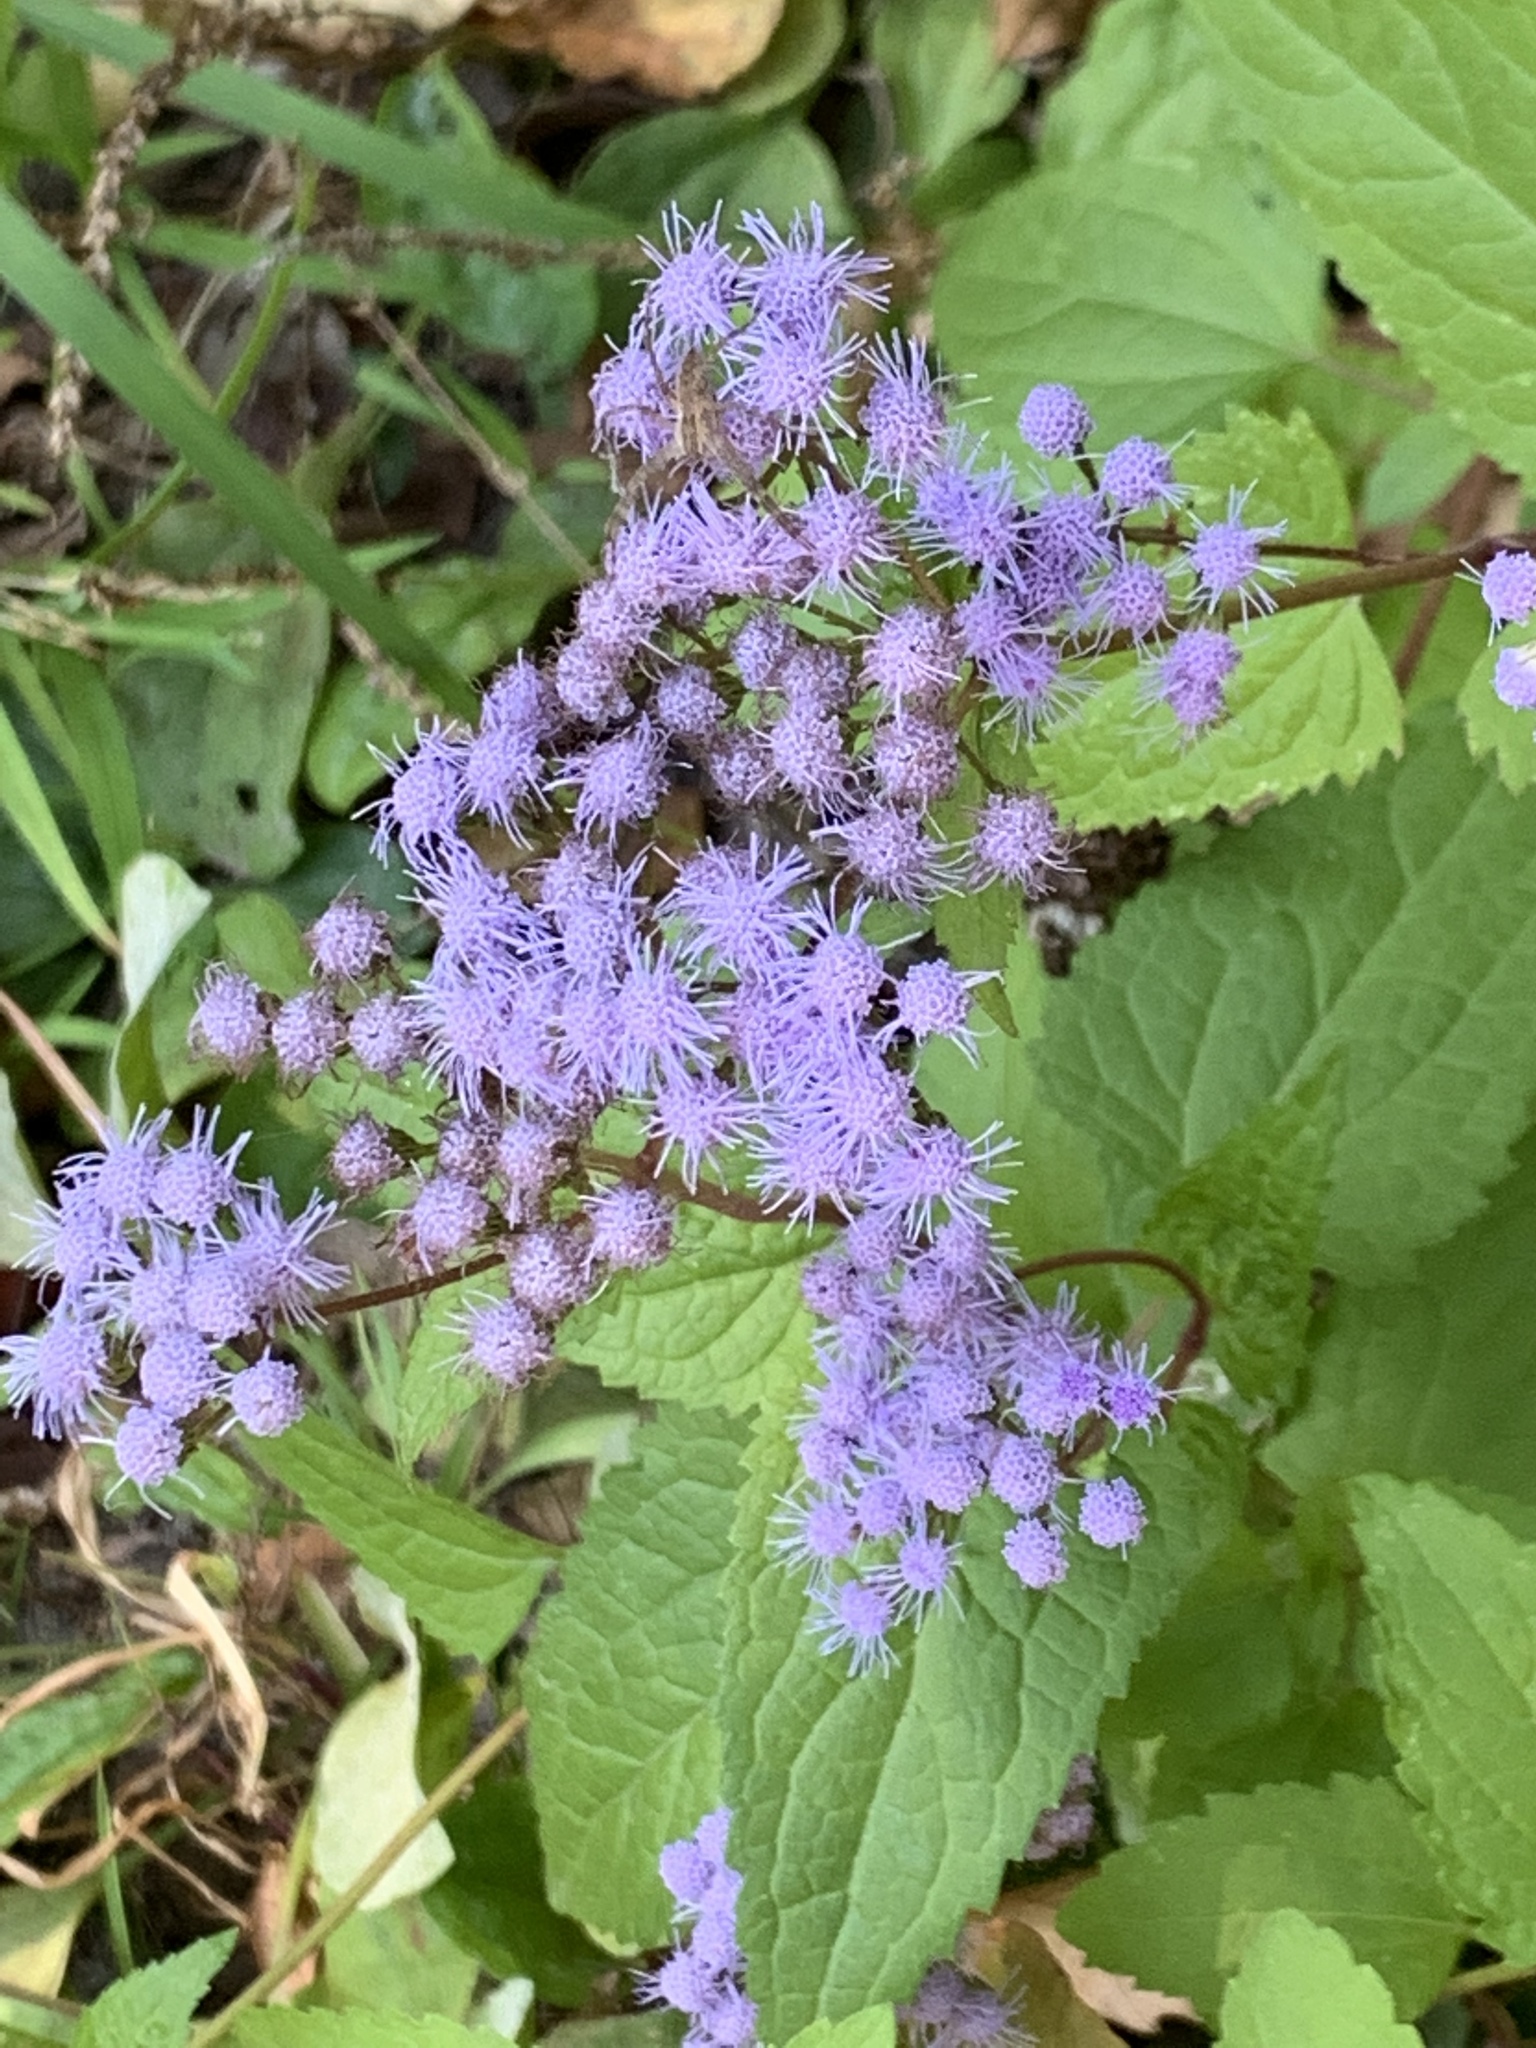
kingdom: Plantae
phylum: Tracheophyta
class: Magnoliopsida
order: Asterales
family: Asteraceae
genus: Conoclinium
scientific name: Conoclinium coelestinum
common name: Blue mistflower
